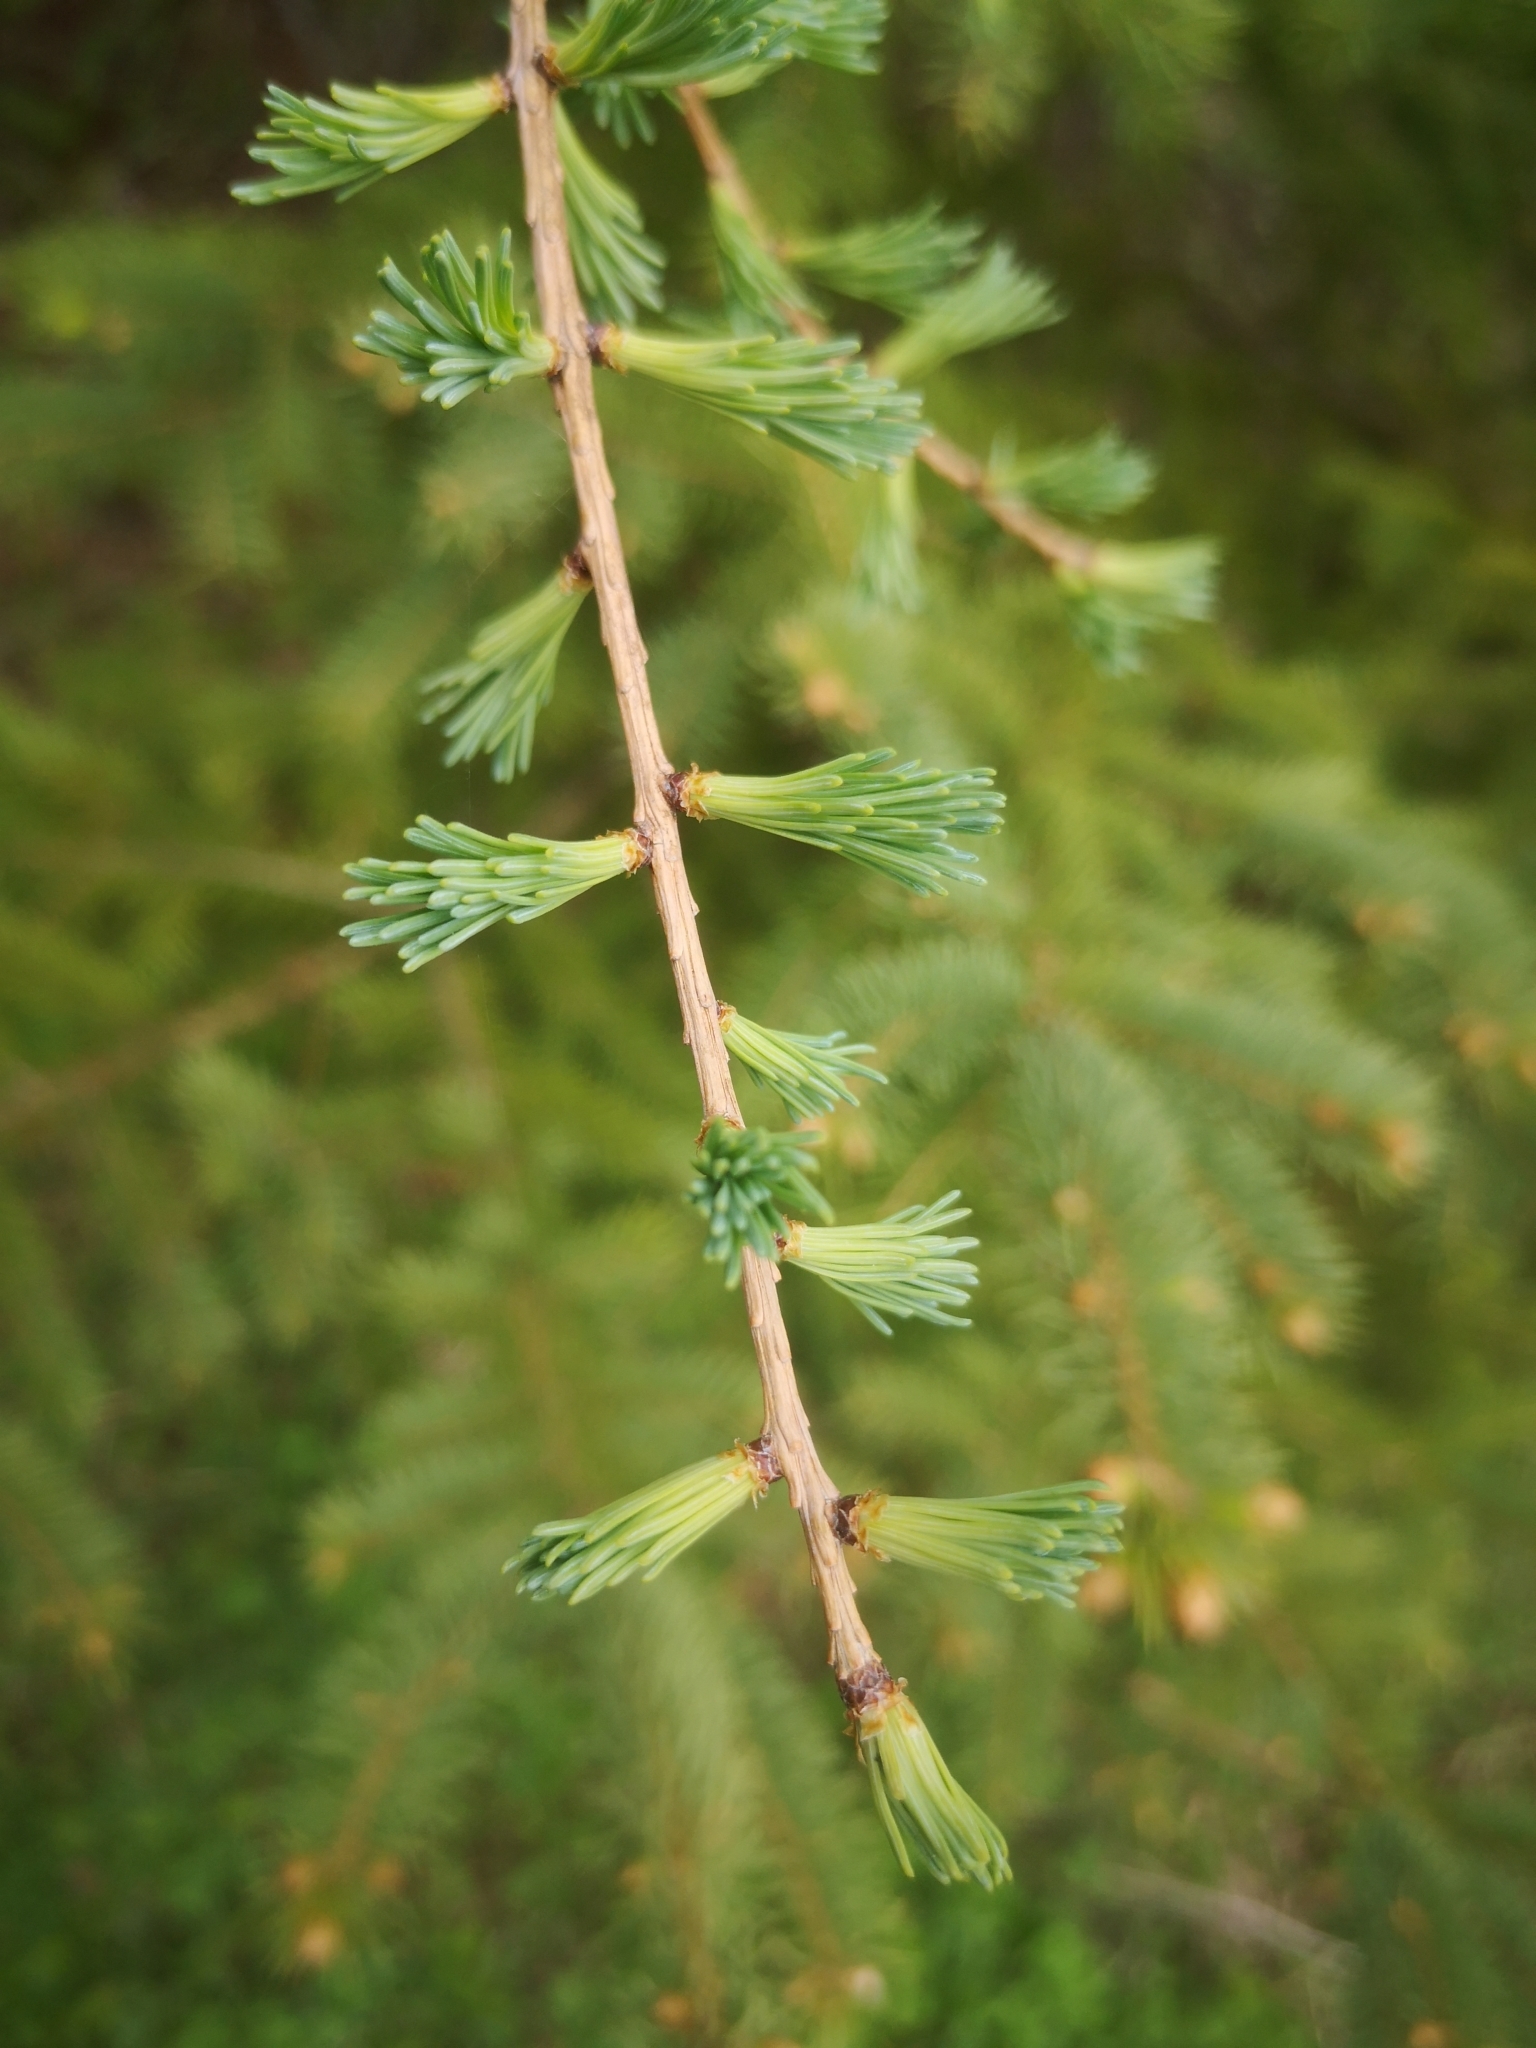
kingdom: Plantae
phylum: Tracheophyta
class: Pinopsida
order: Pinales
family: Pinaceae
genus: Larix
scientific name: Larix laricina
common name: American larch
